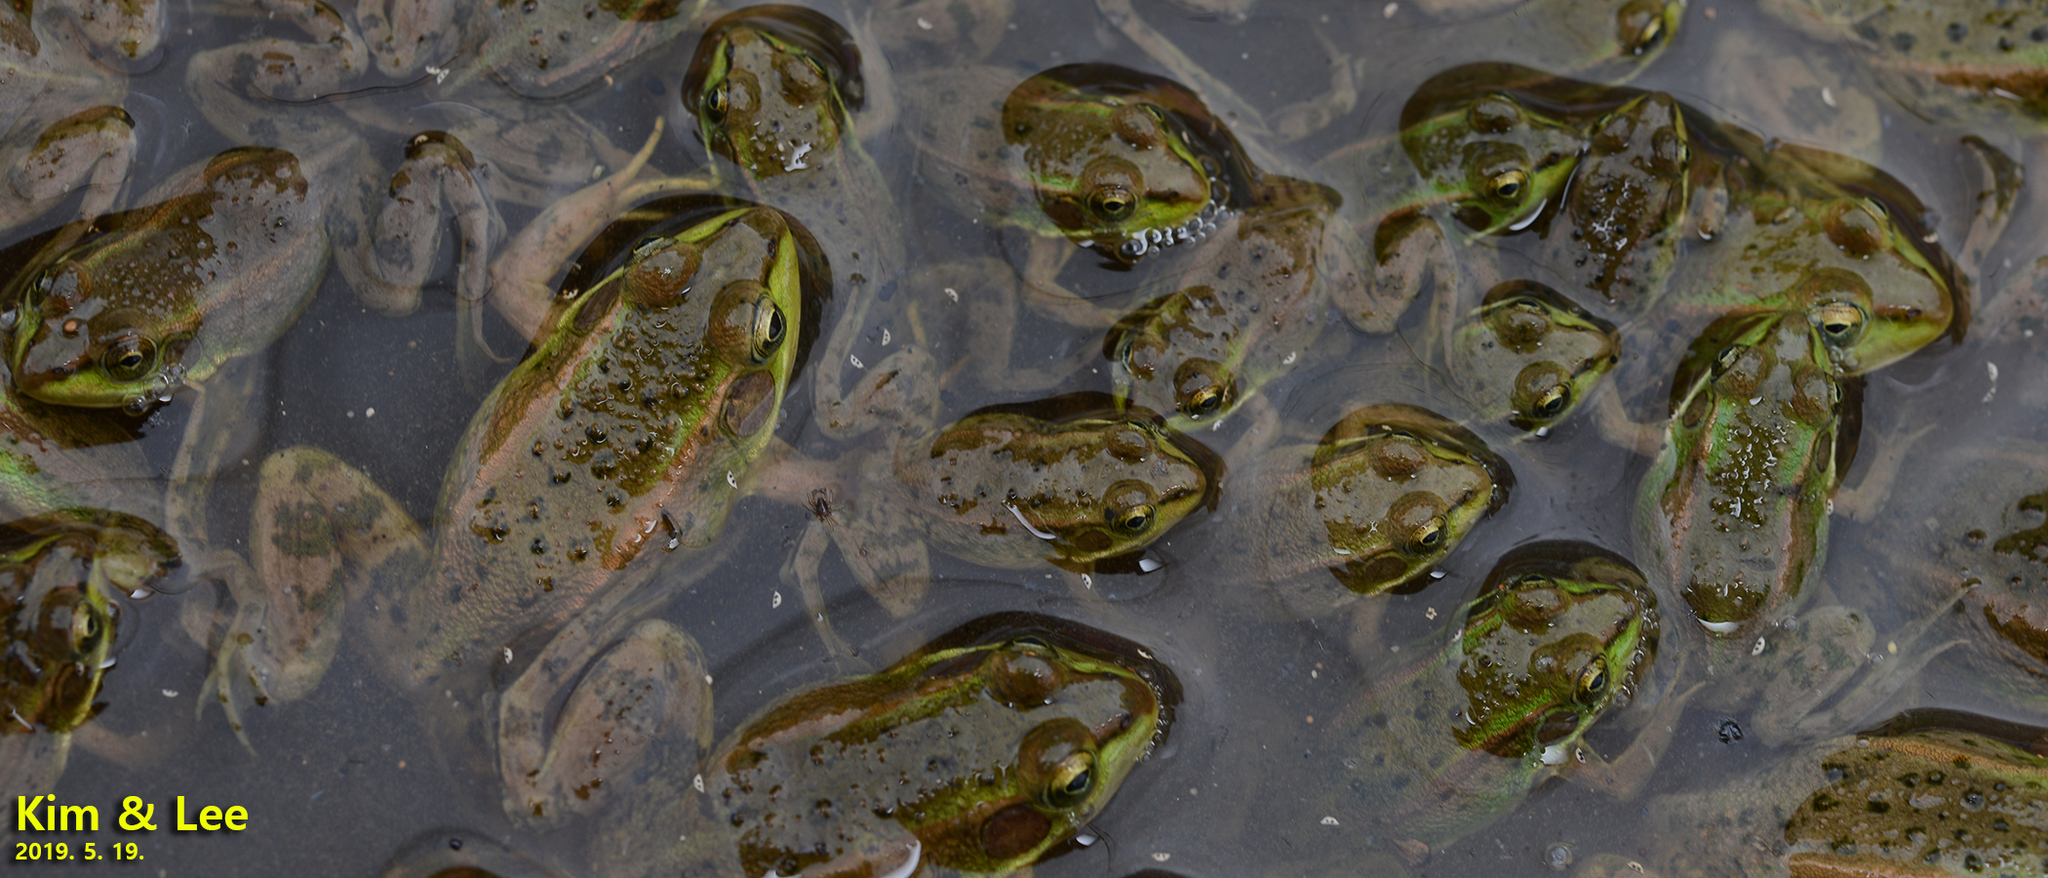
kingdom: Animalia
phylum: Chordata
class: Amphibia
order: Anura
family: Ranidae
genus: Pelophylax
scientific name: Pelophylax chosenicus
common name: Gold-spotted pond frog
